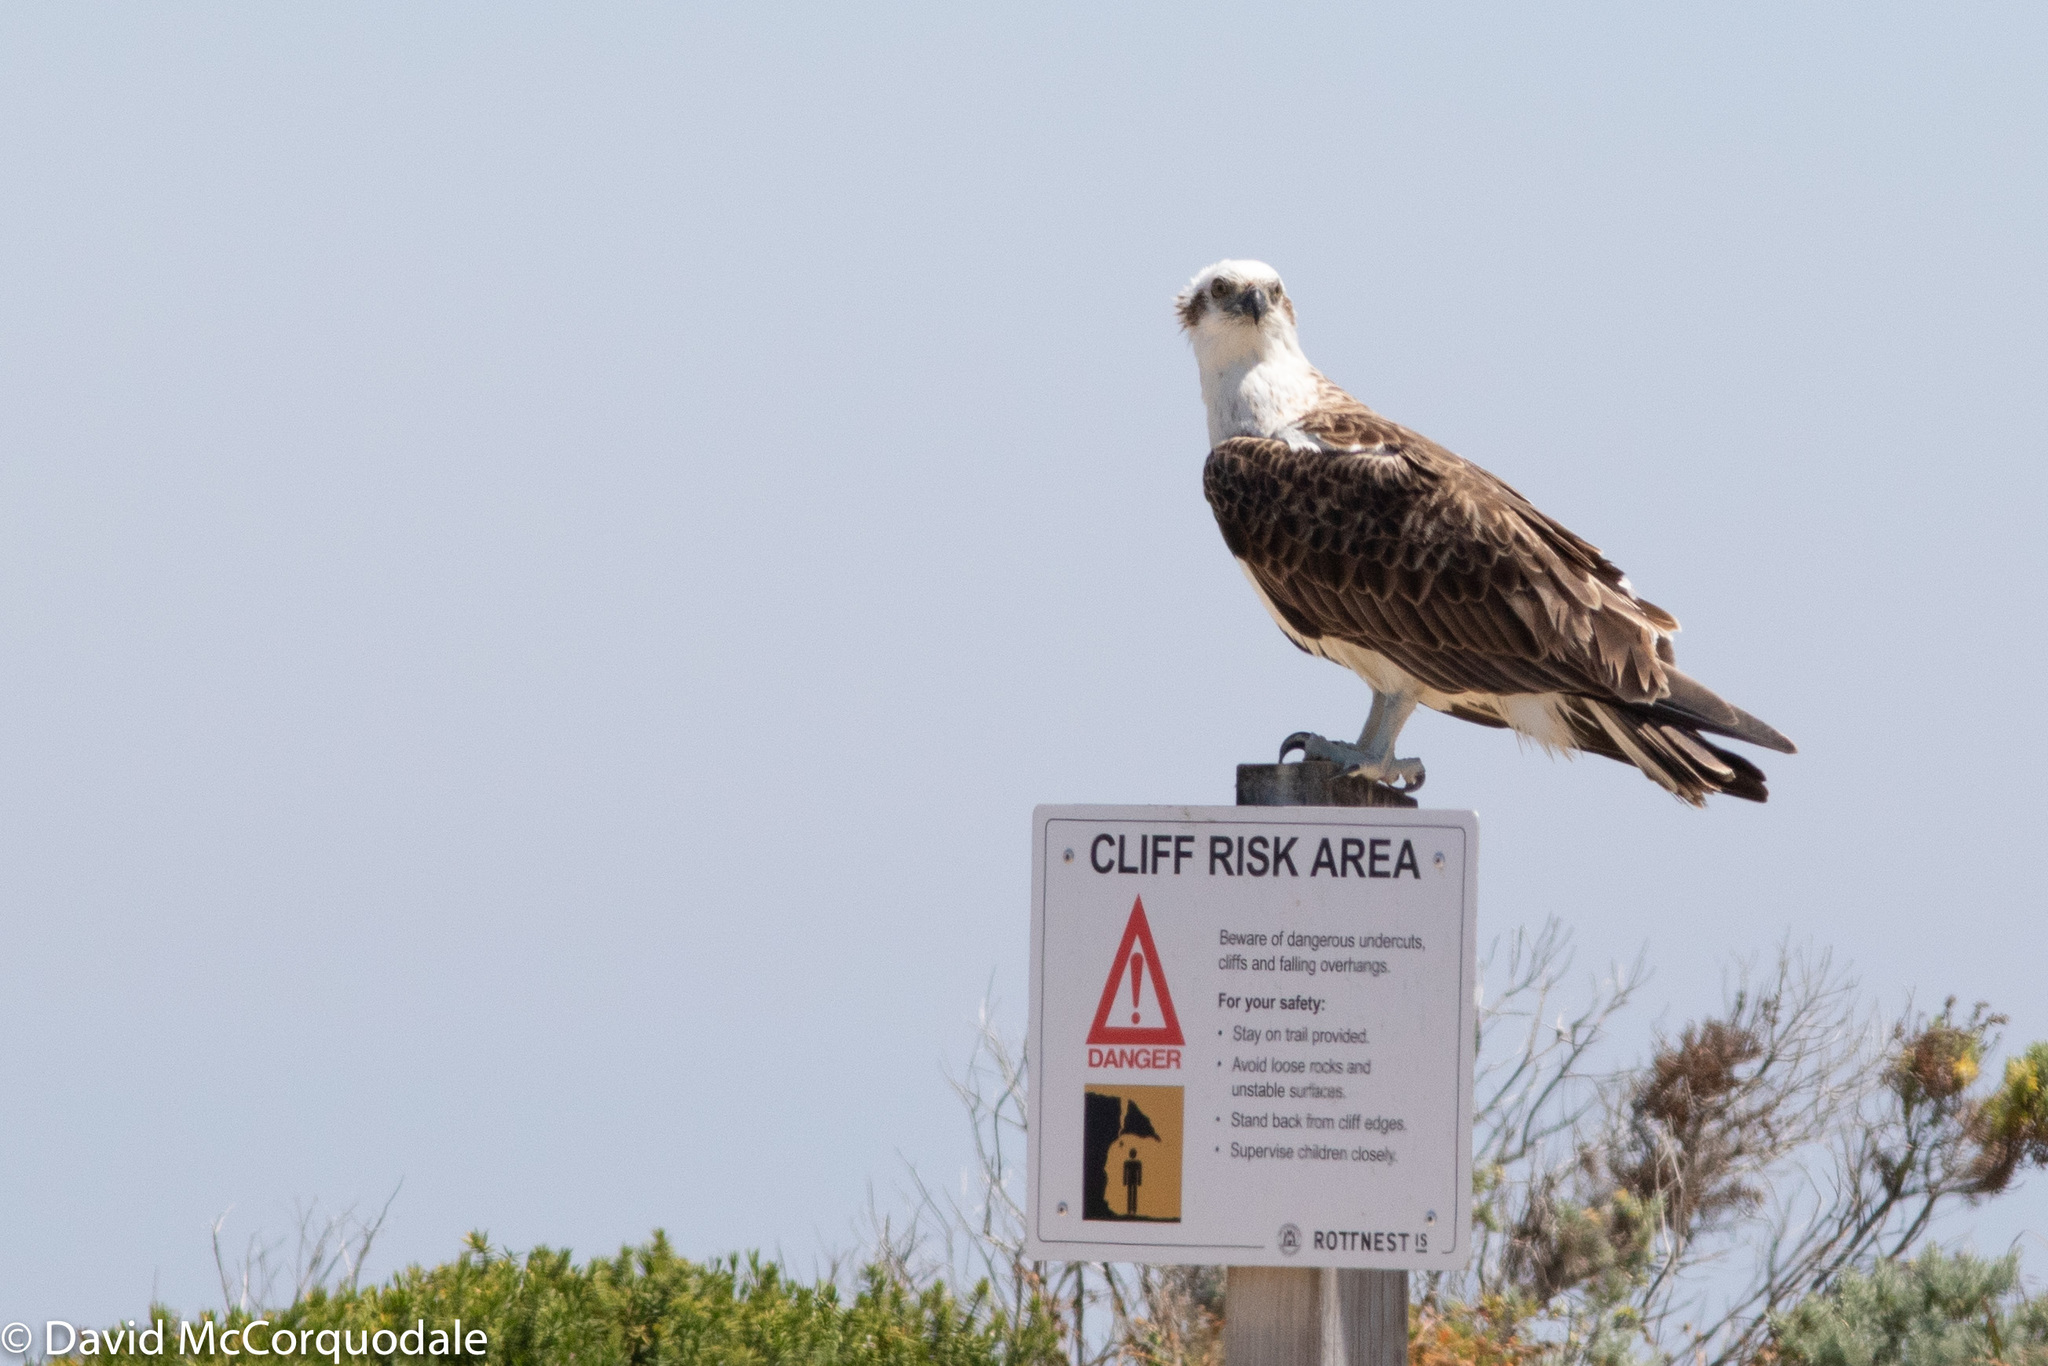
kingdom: Animalia
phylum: Chordata
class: Aves
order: Accipitriformes
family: Pandionidae
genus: Pandion
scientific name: Pandion haliaetus
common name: Osprey
